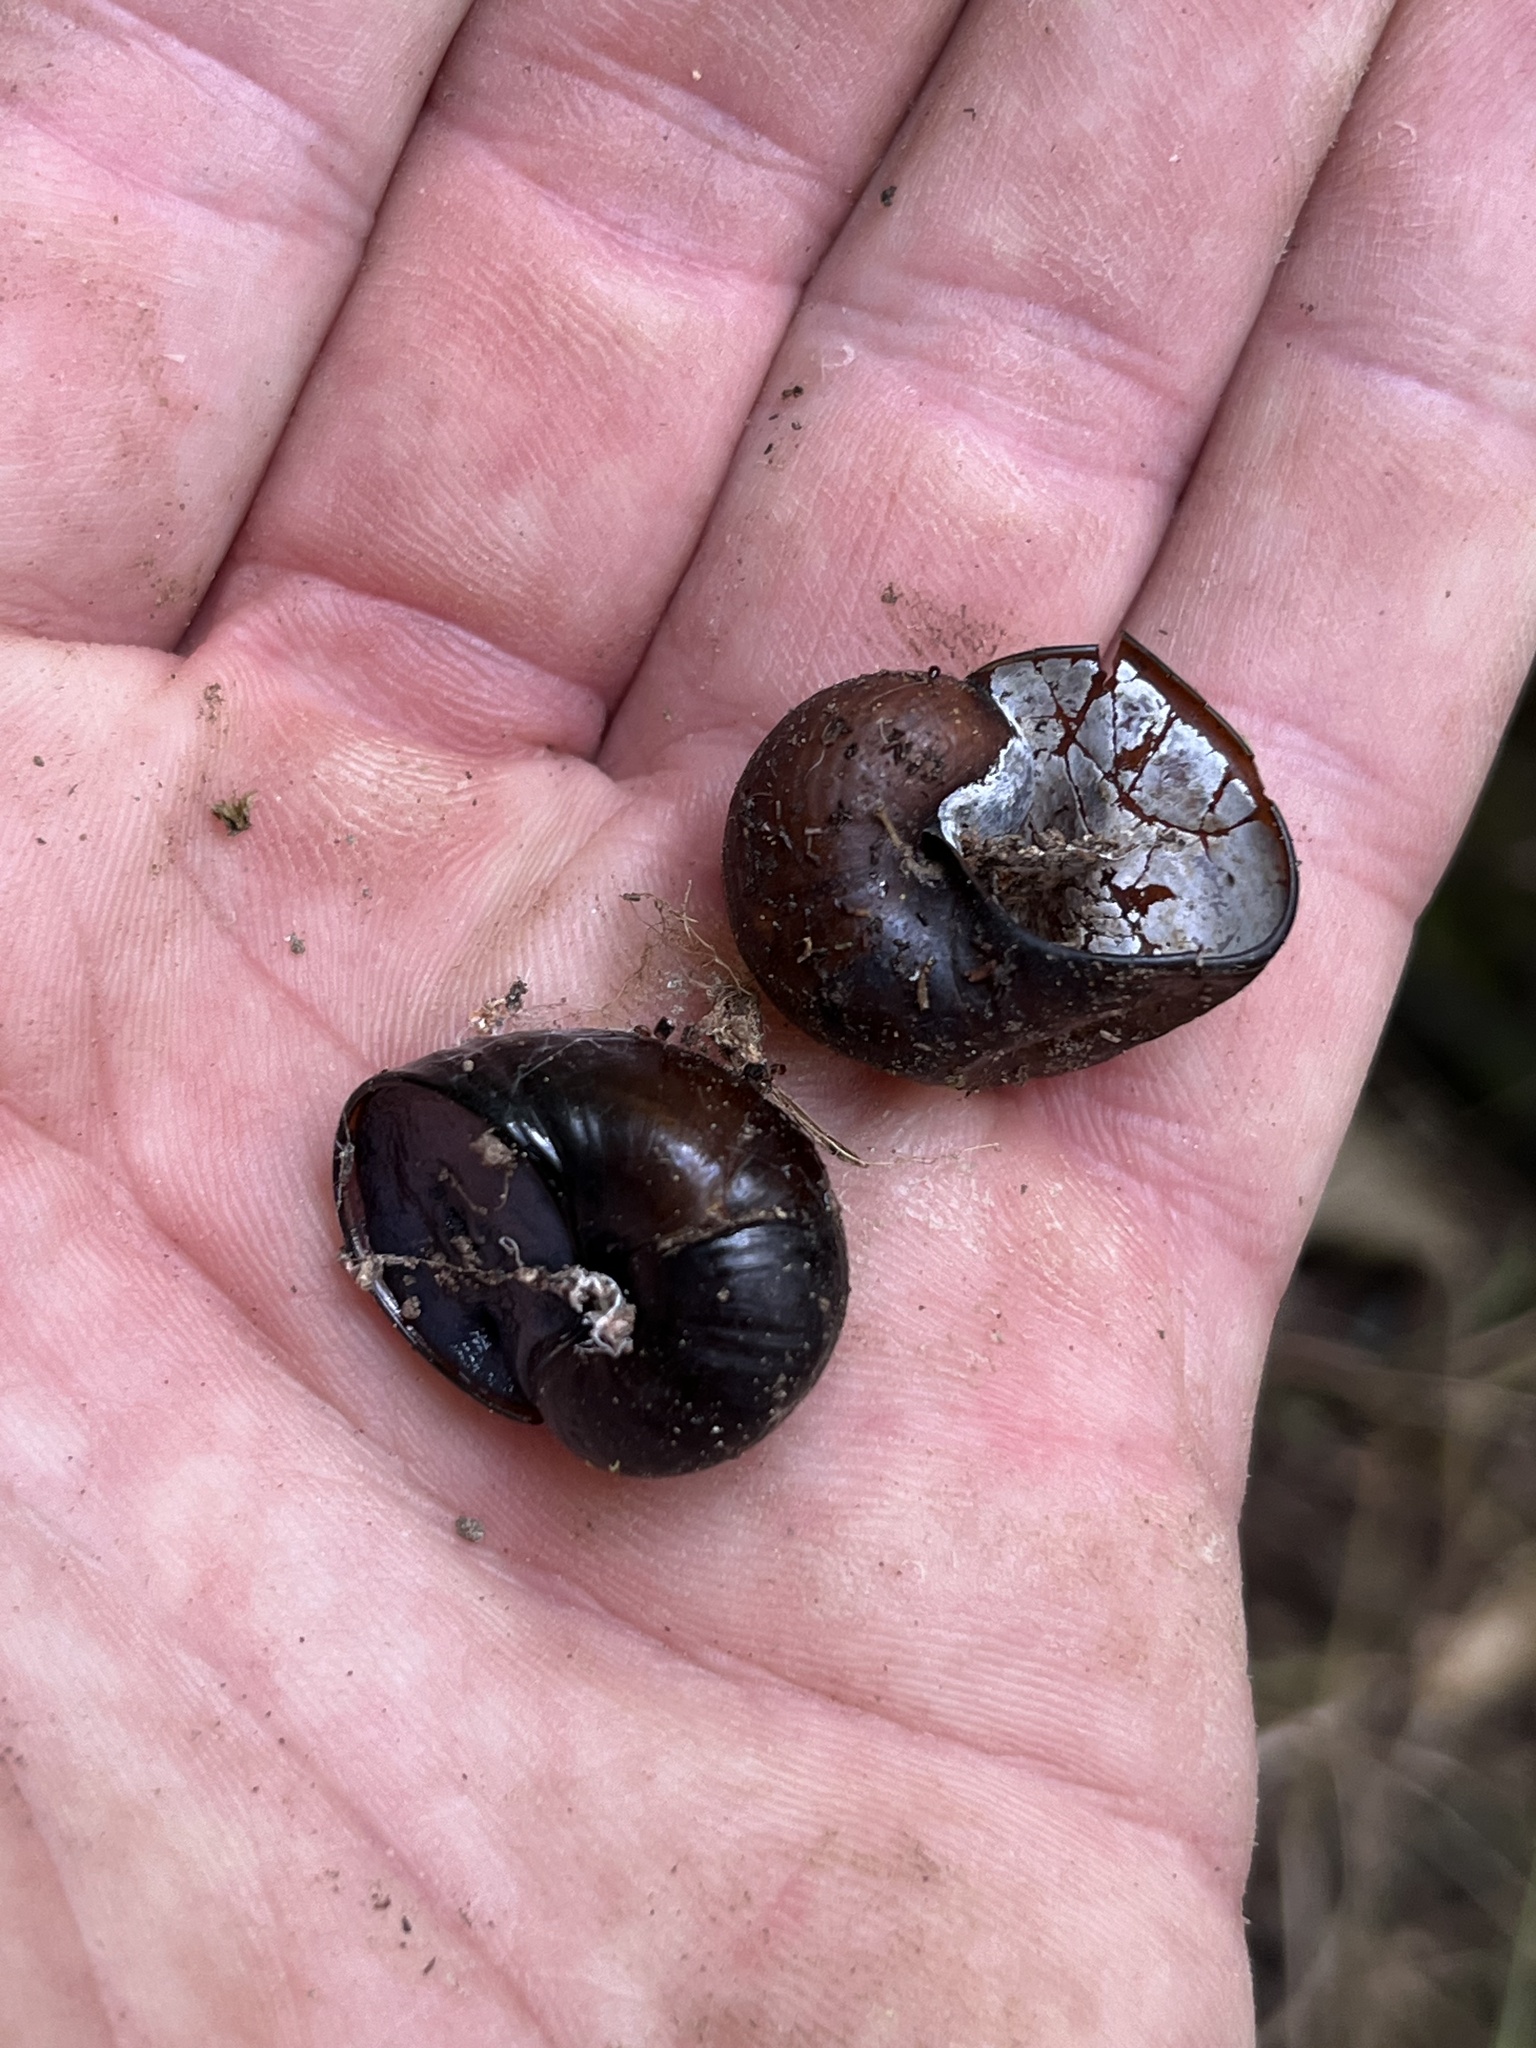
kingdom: Animalia
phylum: Mollusca
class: Gastropoda
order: Stylommatophora
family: Rhytididae
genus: Wainuia
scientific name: Wainuia urnula
